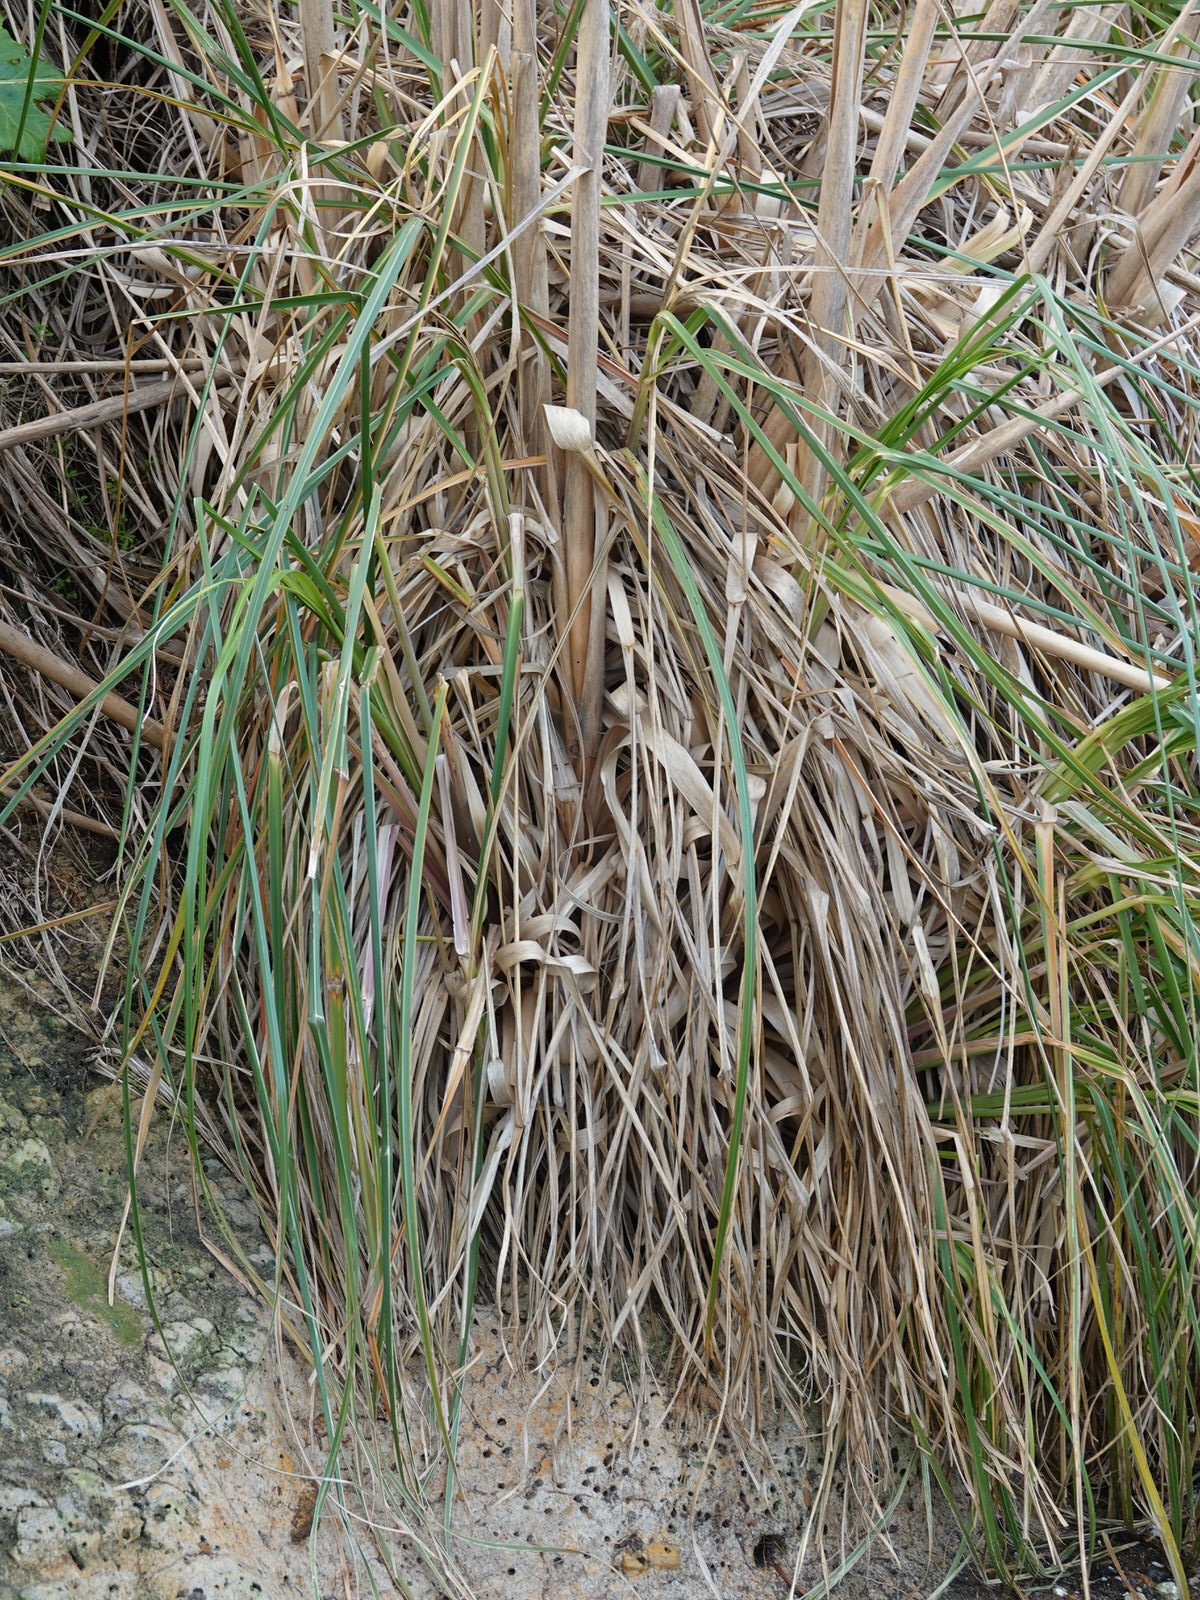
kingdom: Plantae
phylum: Tracheophyta
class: Liliopsida
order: Poales
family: Poaceae
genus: Cortaderia
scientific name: Cortaderia selloana
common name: Uruguayan pampas grass
